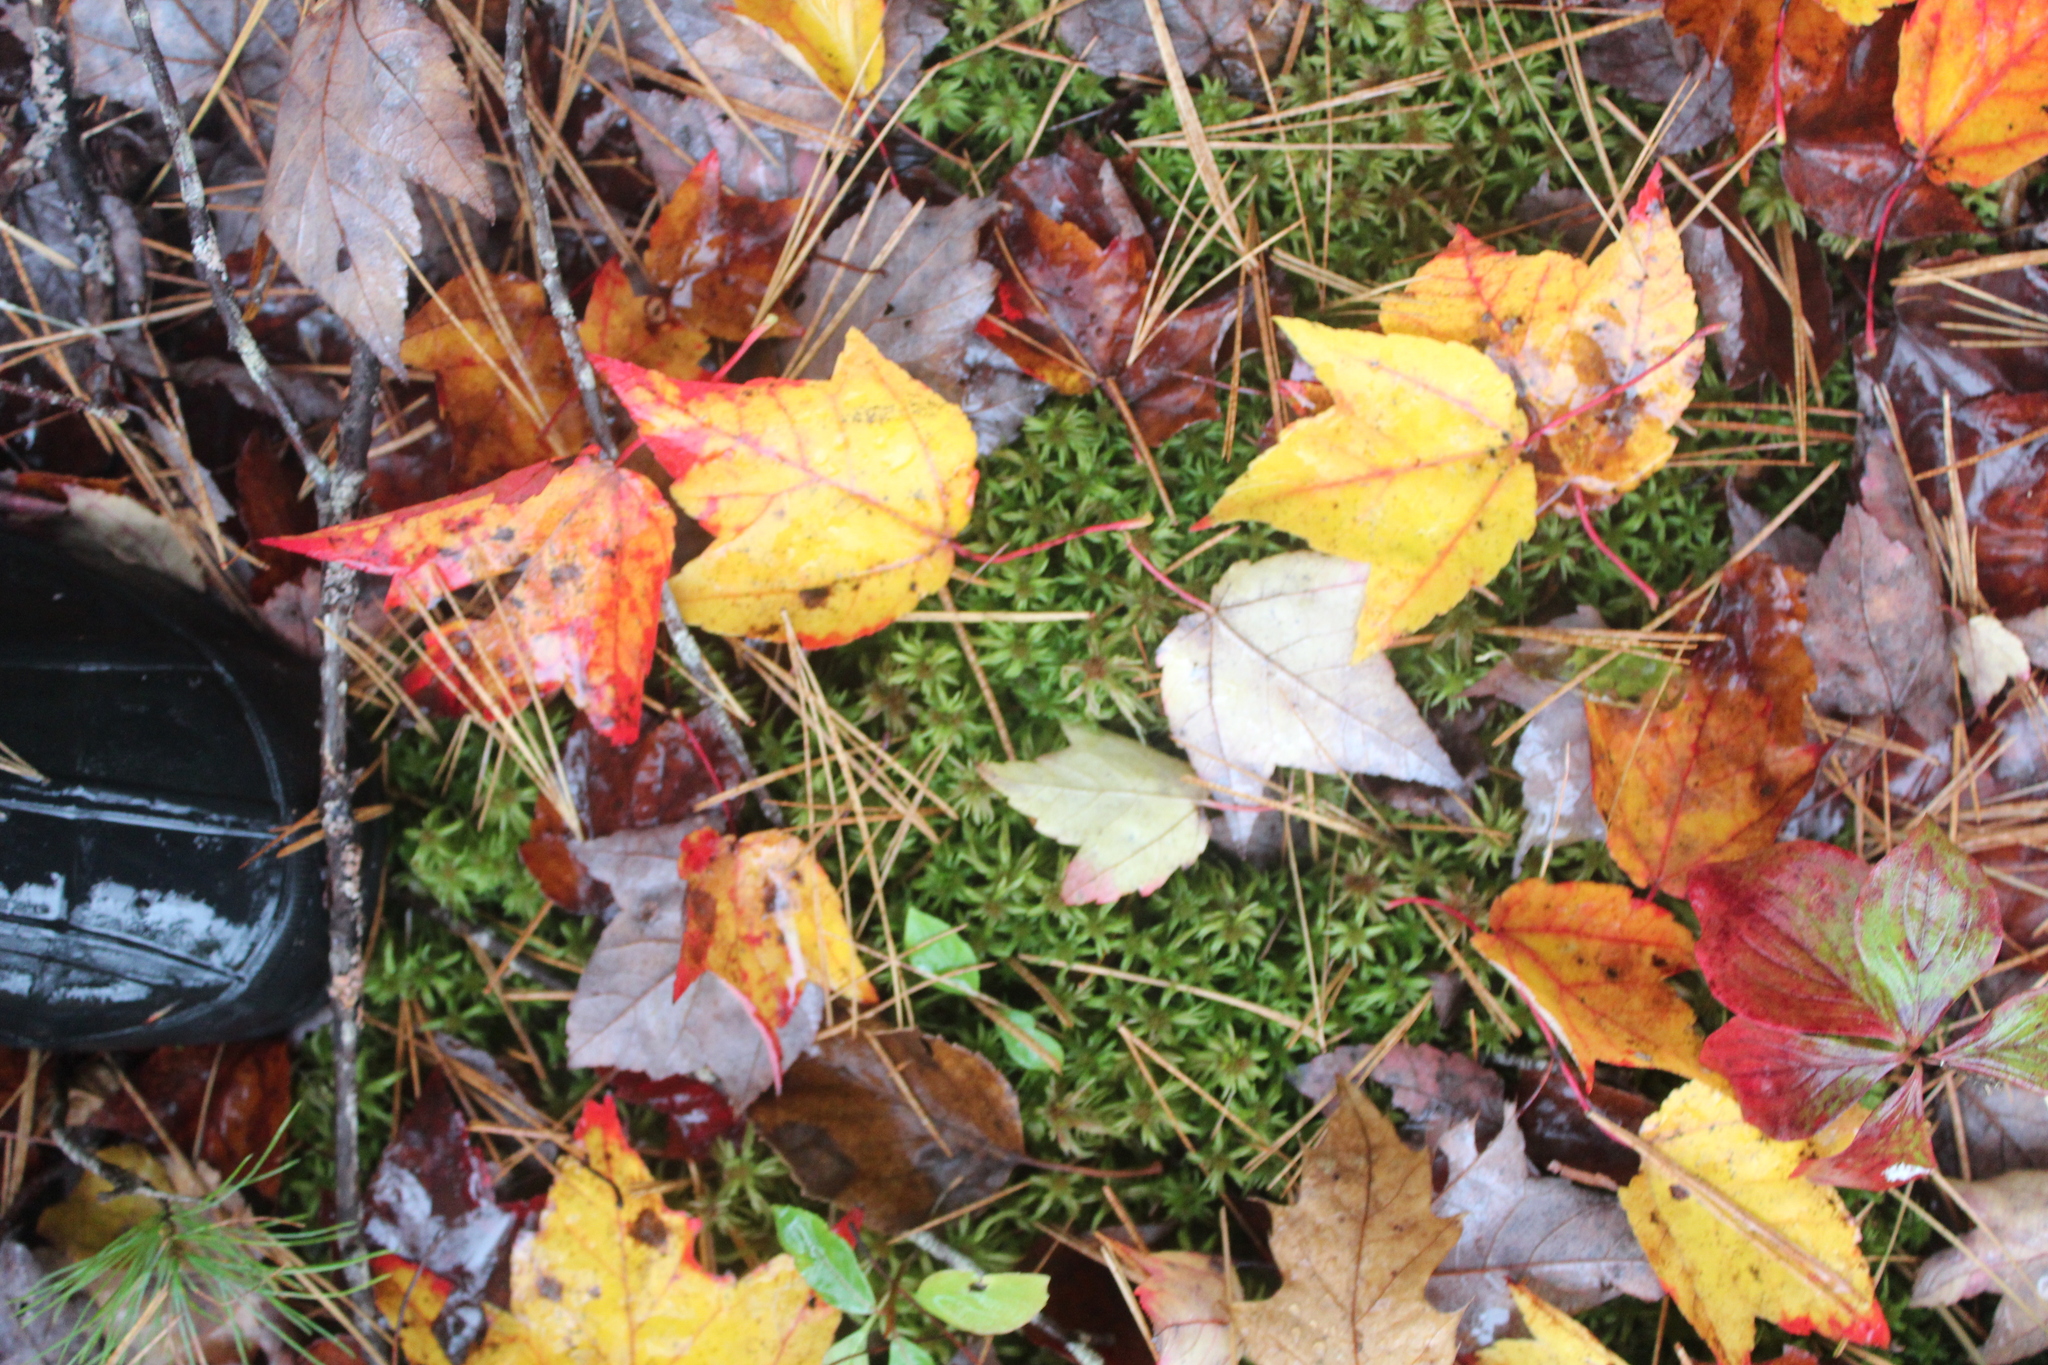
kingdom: Plantae
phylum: Tracheophyta
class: Magnoliopsida
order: Sapindales
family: Sapindaceae
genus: Acer
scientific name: Acer rubrum
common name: Red maple
